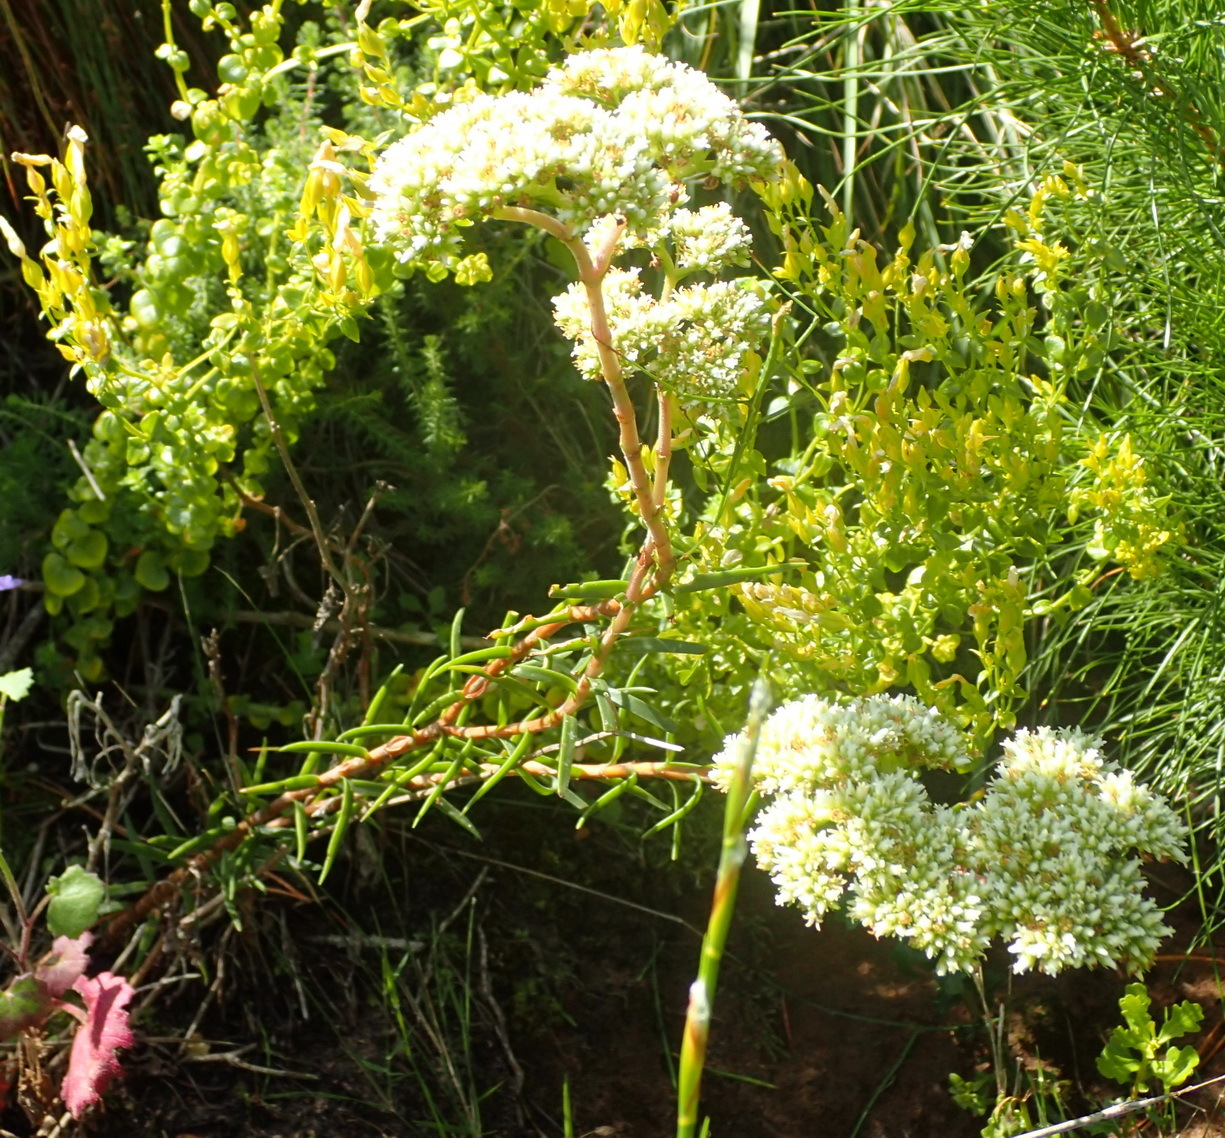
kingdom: Plantae
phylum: Tracheophyta
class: Magnoliopsida
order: Saxifragales
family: Crassulaceae
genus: Crassula
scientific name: Crassula subulata
